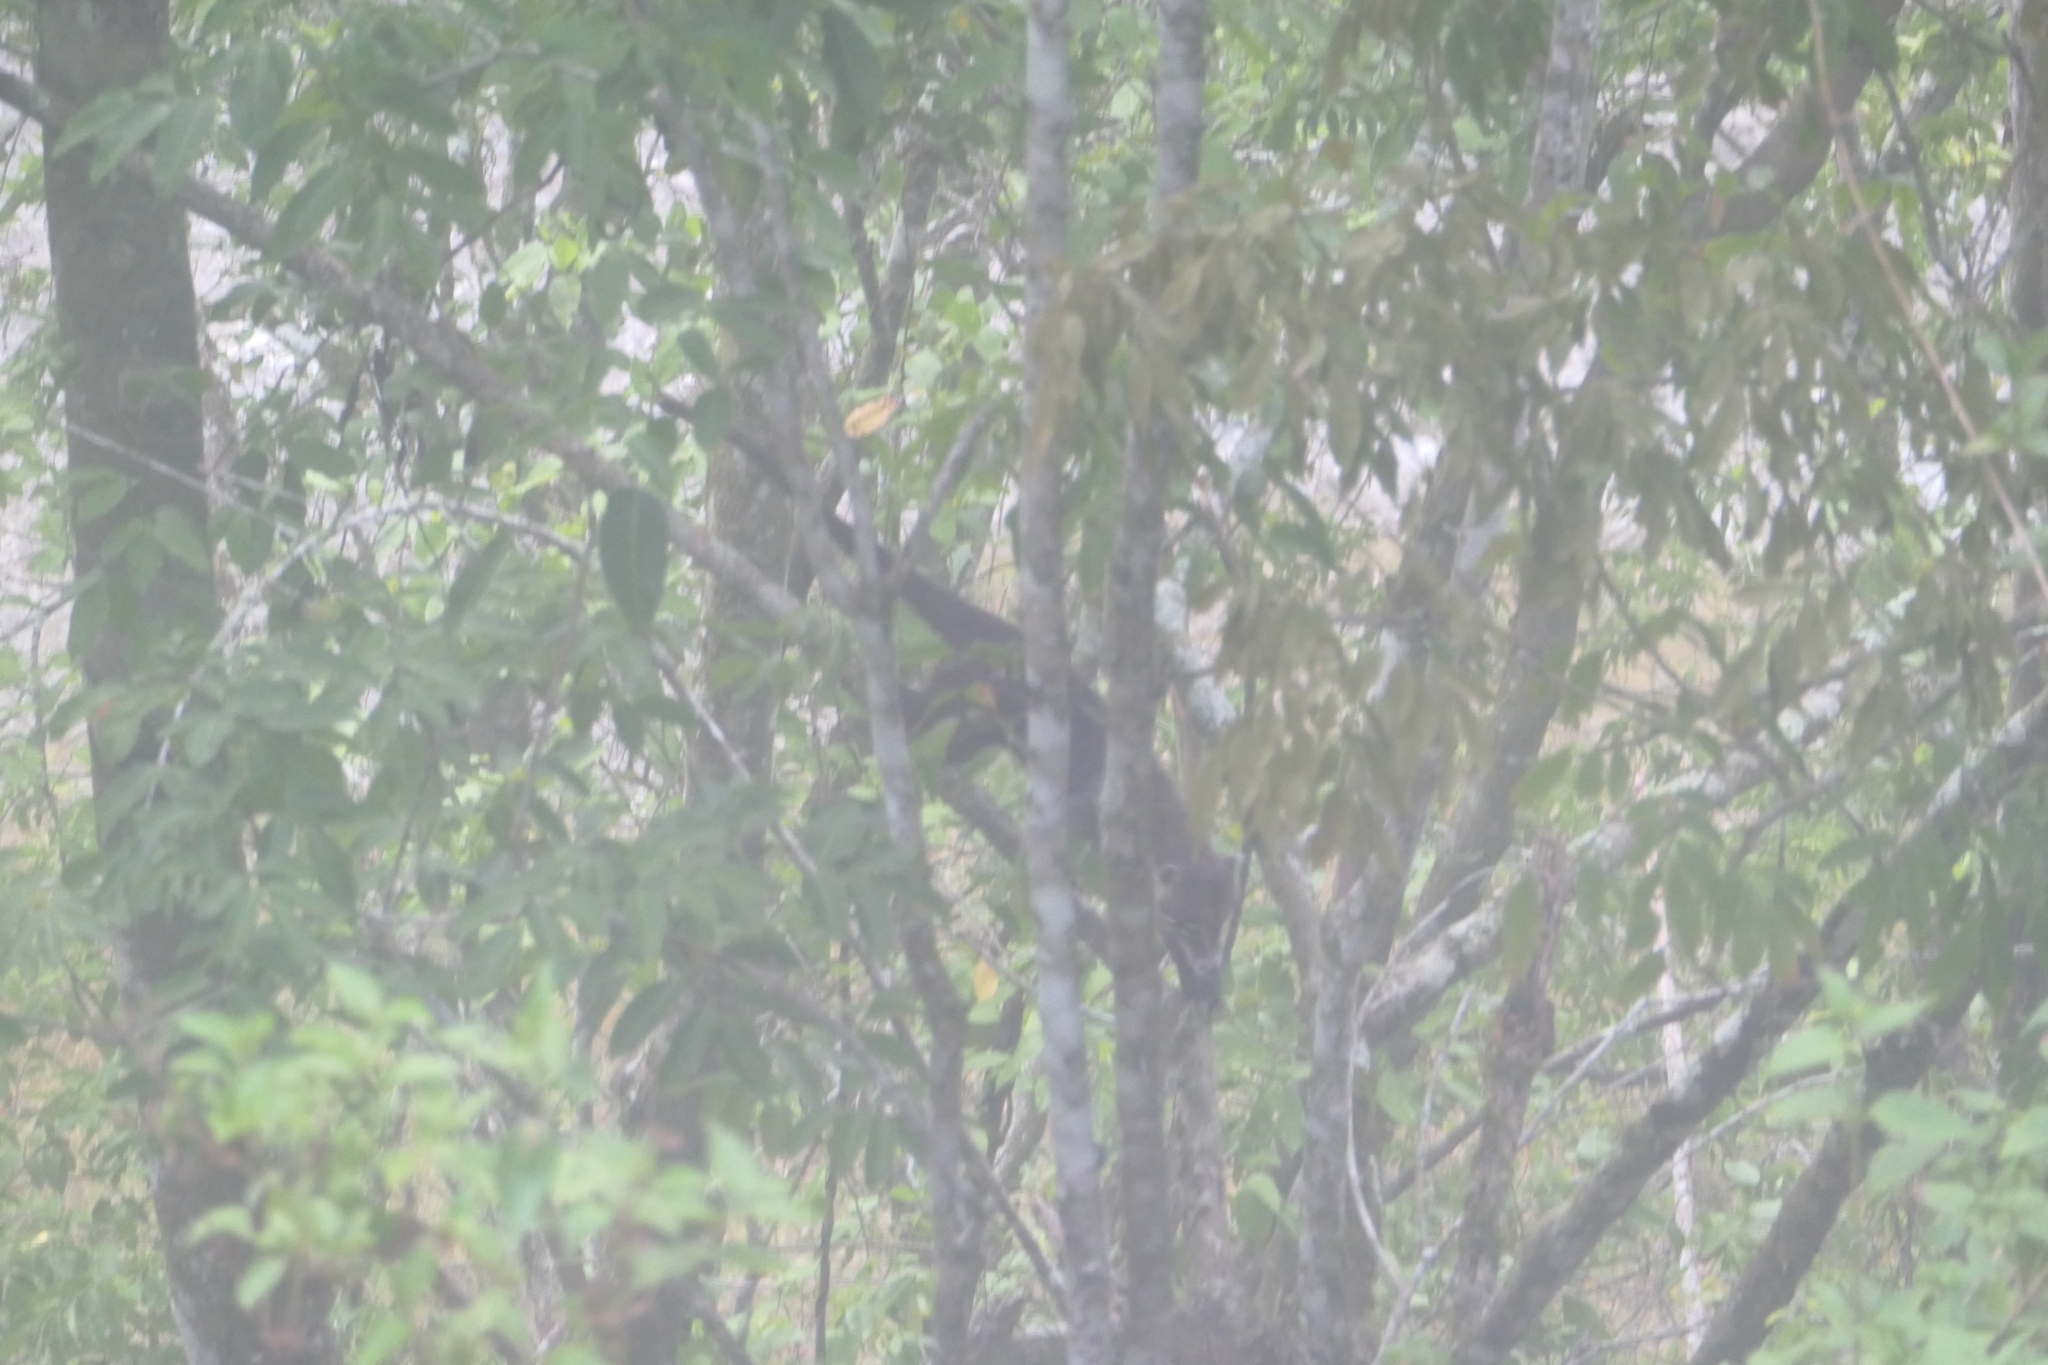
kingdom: Animalia
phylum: Chordata
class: Mammalia
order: Carnivora
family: Procyonidae
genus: Nasua
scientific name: Nasua narica
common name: White-nosed coati
